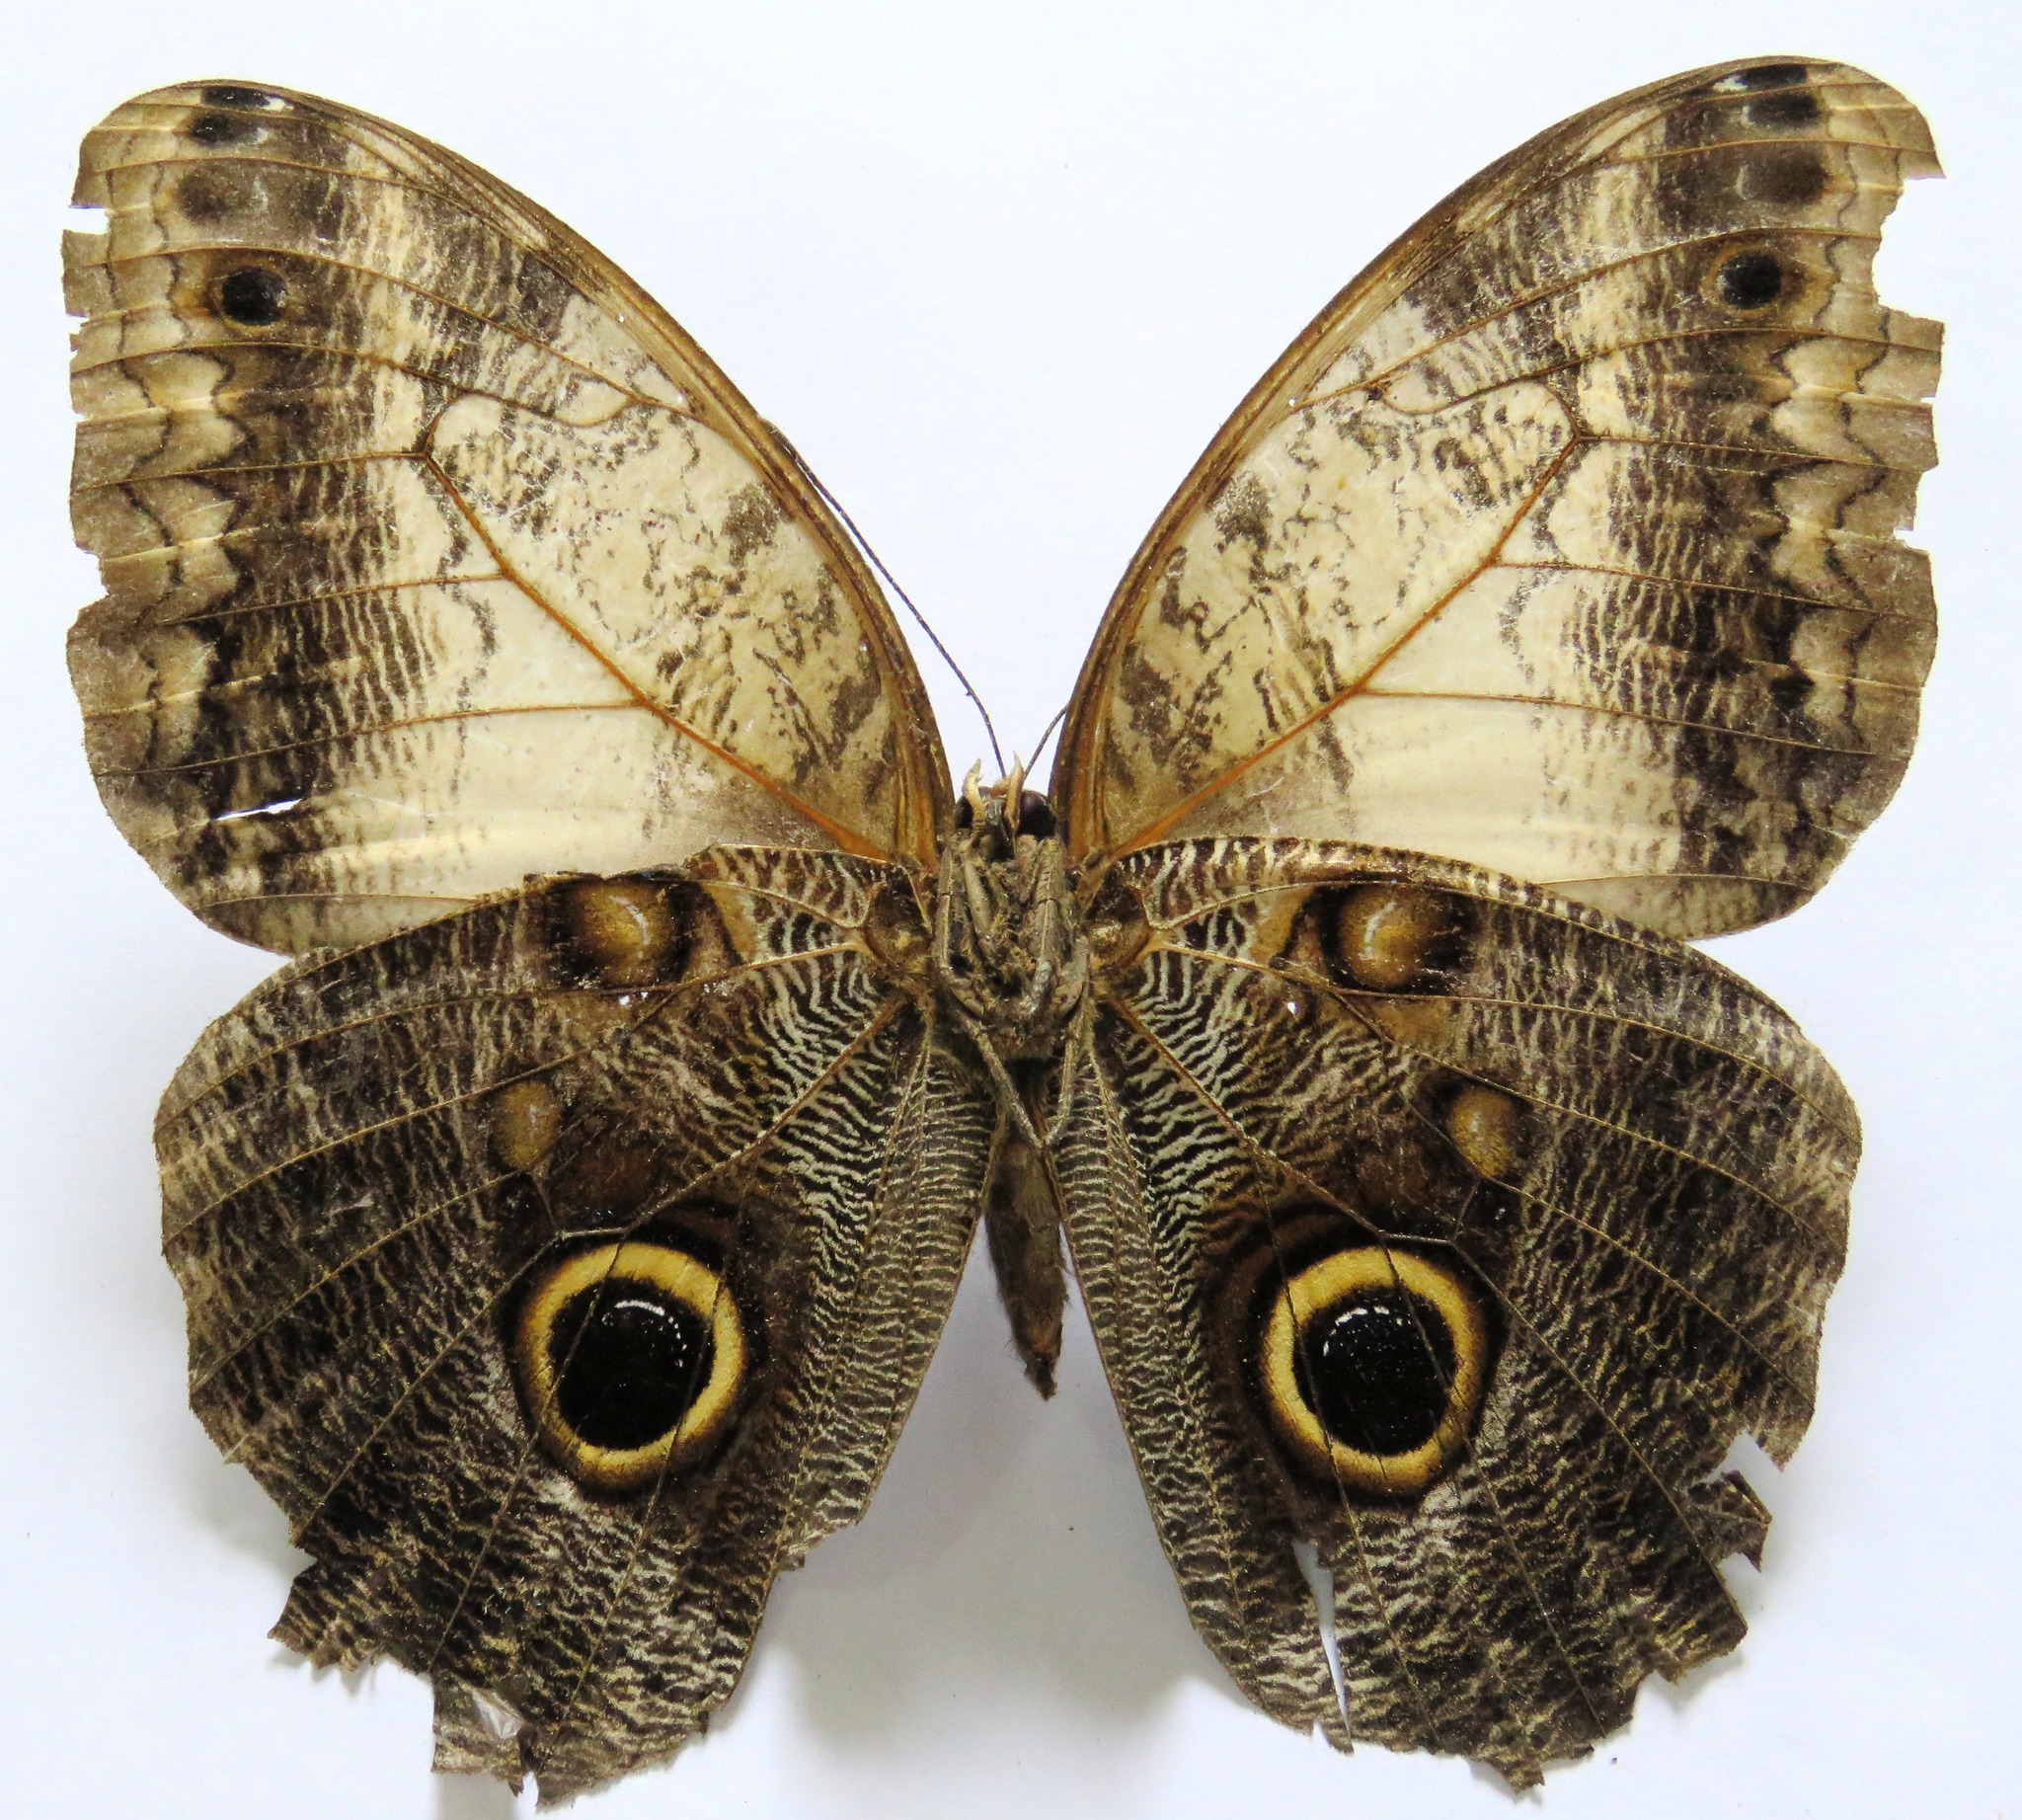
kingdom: Animalia
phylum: Arthropoda
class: Insecta
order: Lepidoptera
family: Nymphalidae
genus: Caligo
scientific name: Caligo telamonius
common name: Pale owl-butterfly
